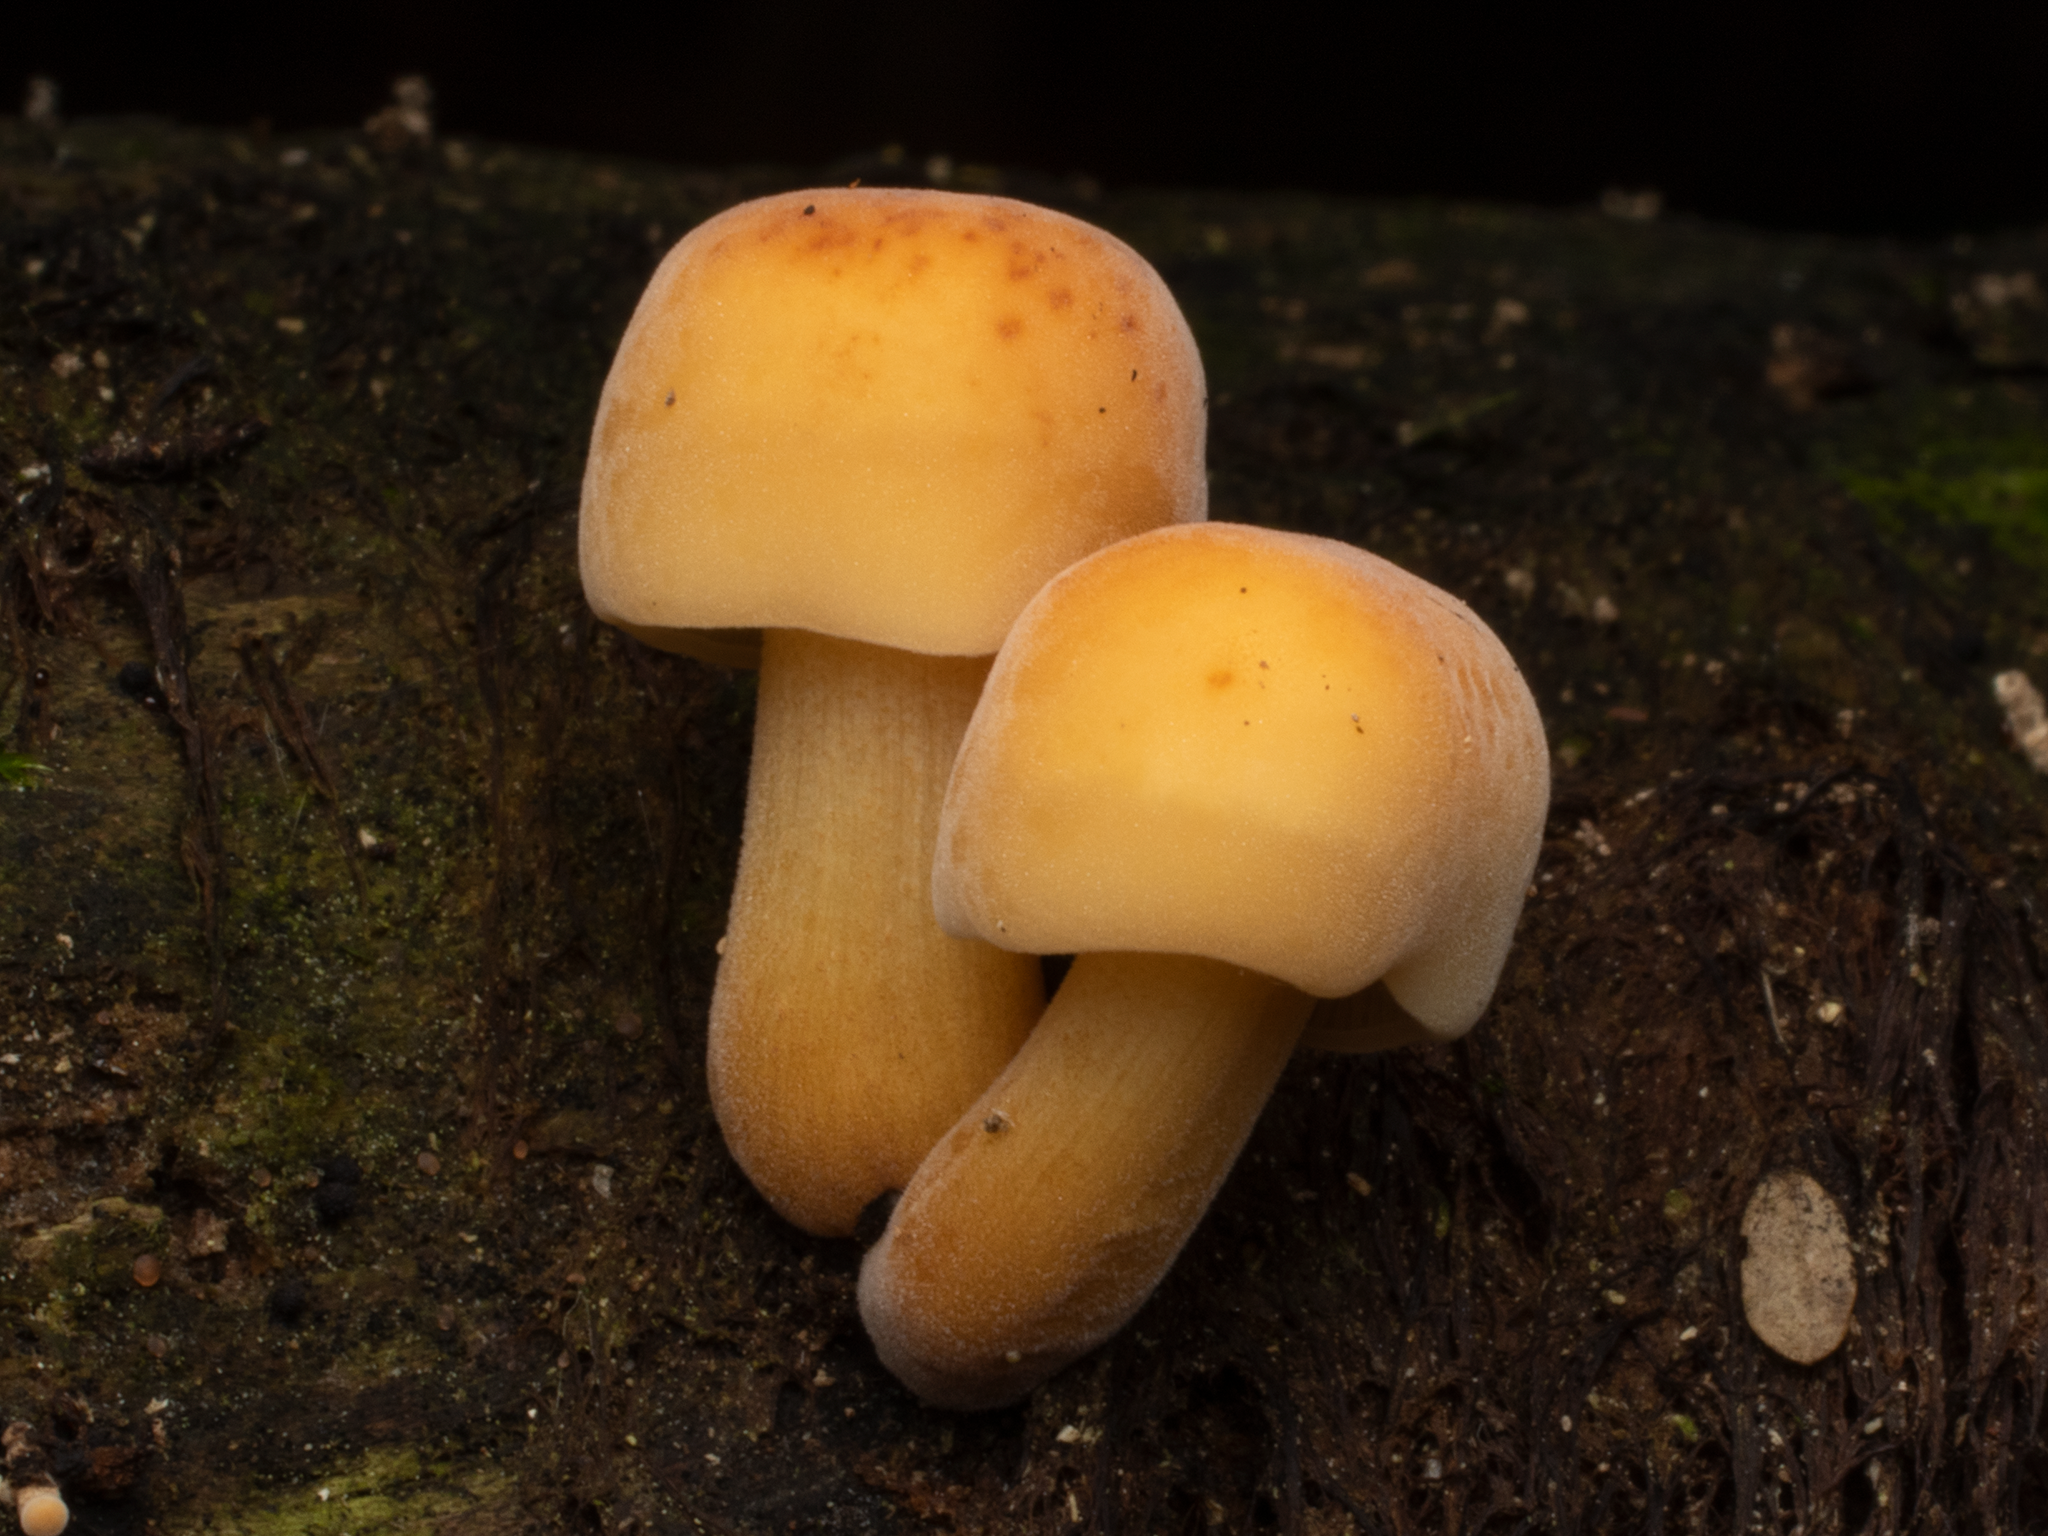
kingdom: Fungi
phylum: Basidiomycota
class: Agaricomycetes
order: Agaricales
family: Physalacriaceae
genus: Flammulina
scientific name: Flammulina velutipes
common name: Velvet shank
